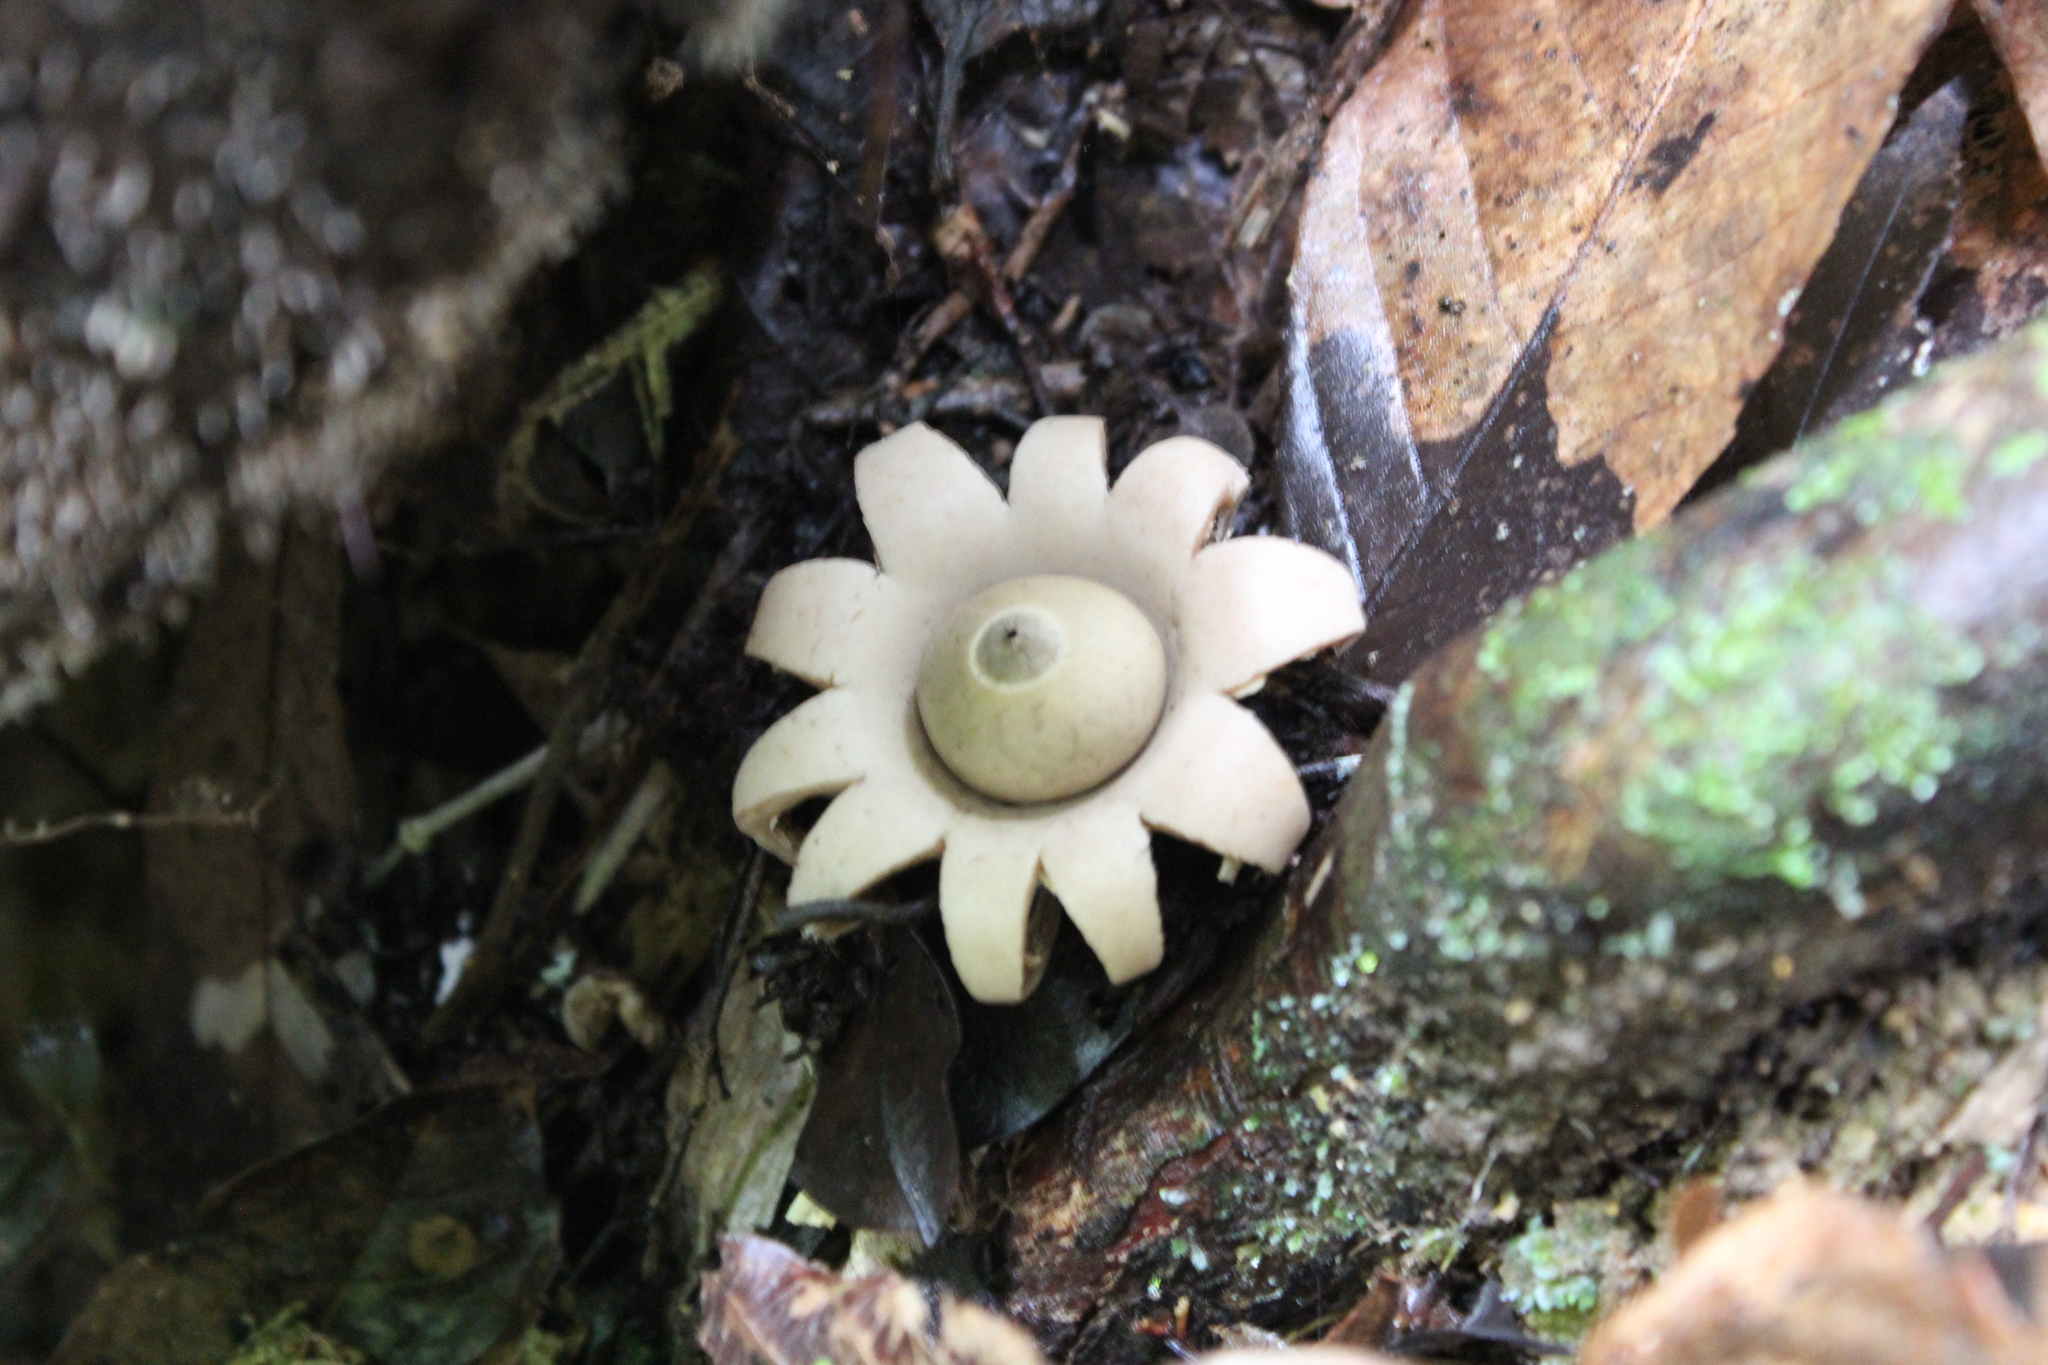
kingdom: Fungi
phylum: Basidiomycota
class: Agaricomycetes
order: Geastrales
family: Geastraceae
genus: Geastrum
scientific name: Geastrum saccatum
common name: Rounded earthstar
